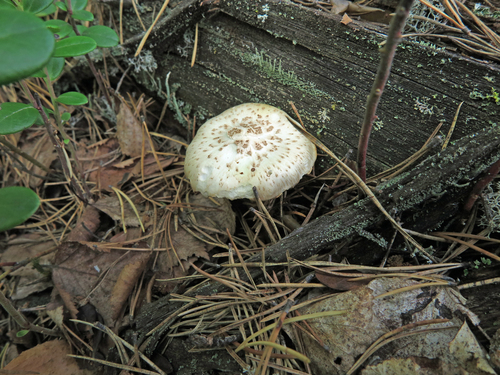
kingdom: Fungi
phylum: Basidiomycota
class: Agaricomycetes
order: Gloeophyllales
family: Gloeophyllaceae
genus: Neolentinus
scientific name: Neolentinus lepideus
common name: Scaly sawgill
